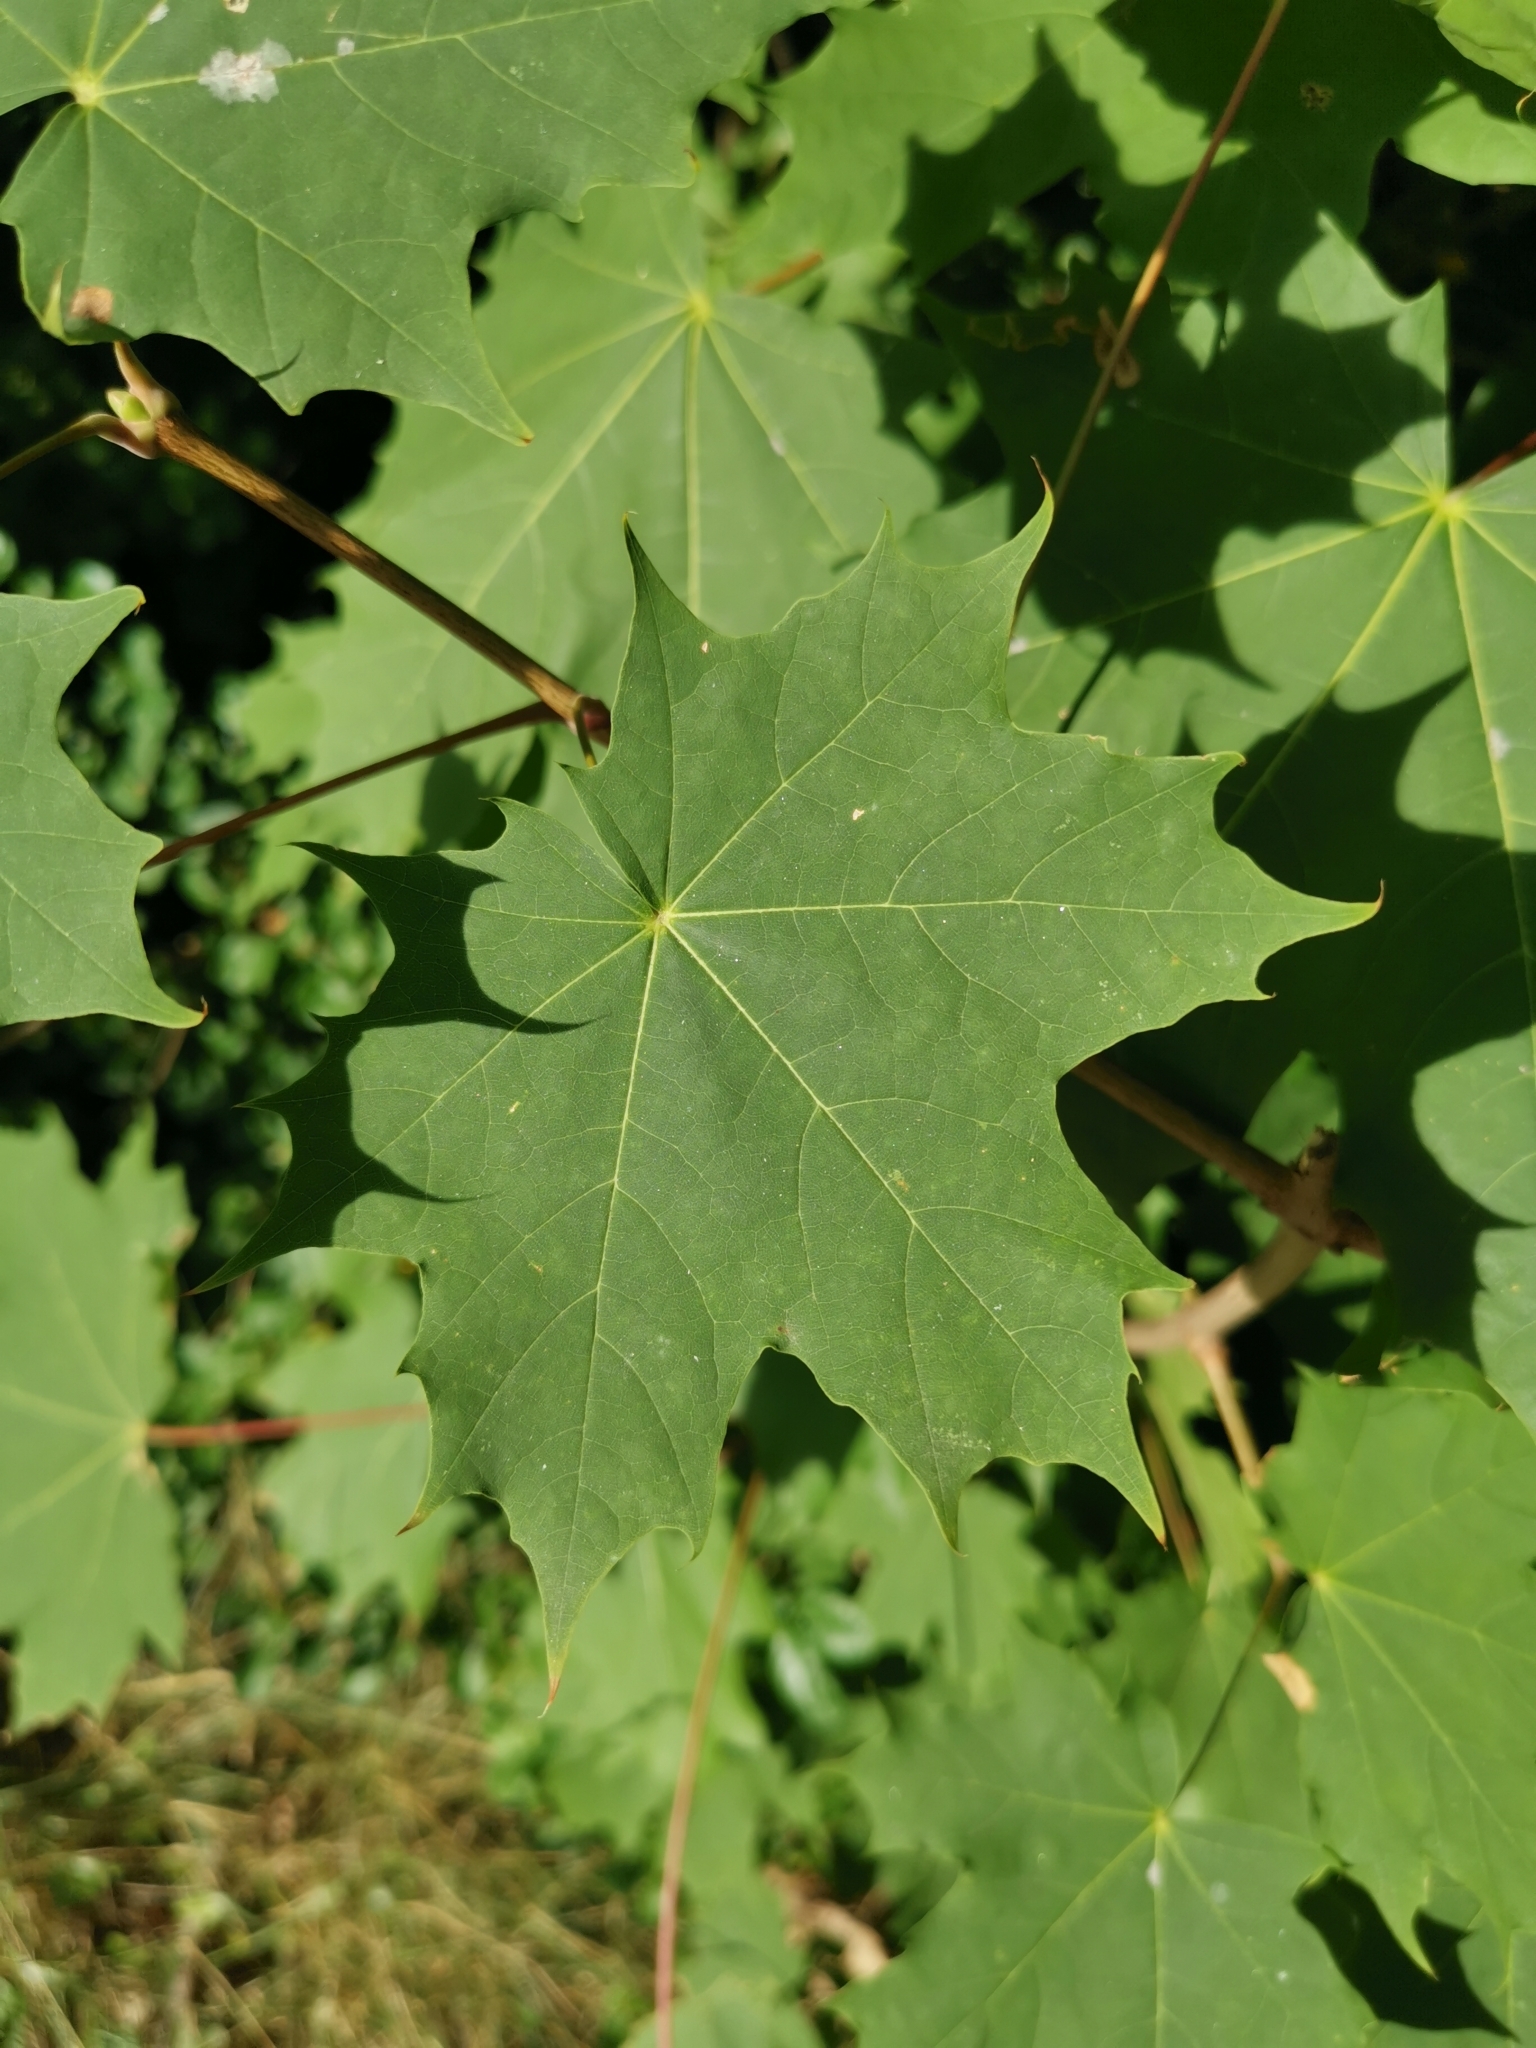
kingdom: Plantae
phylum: Tracheophyta
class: Magnoliopsida
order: Sapindales
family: Sapindaceae
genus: Acer
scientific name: Acer platanoides
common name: Norway maple
